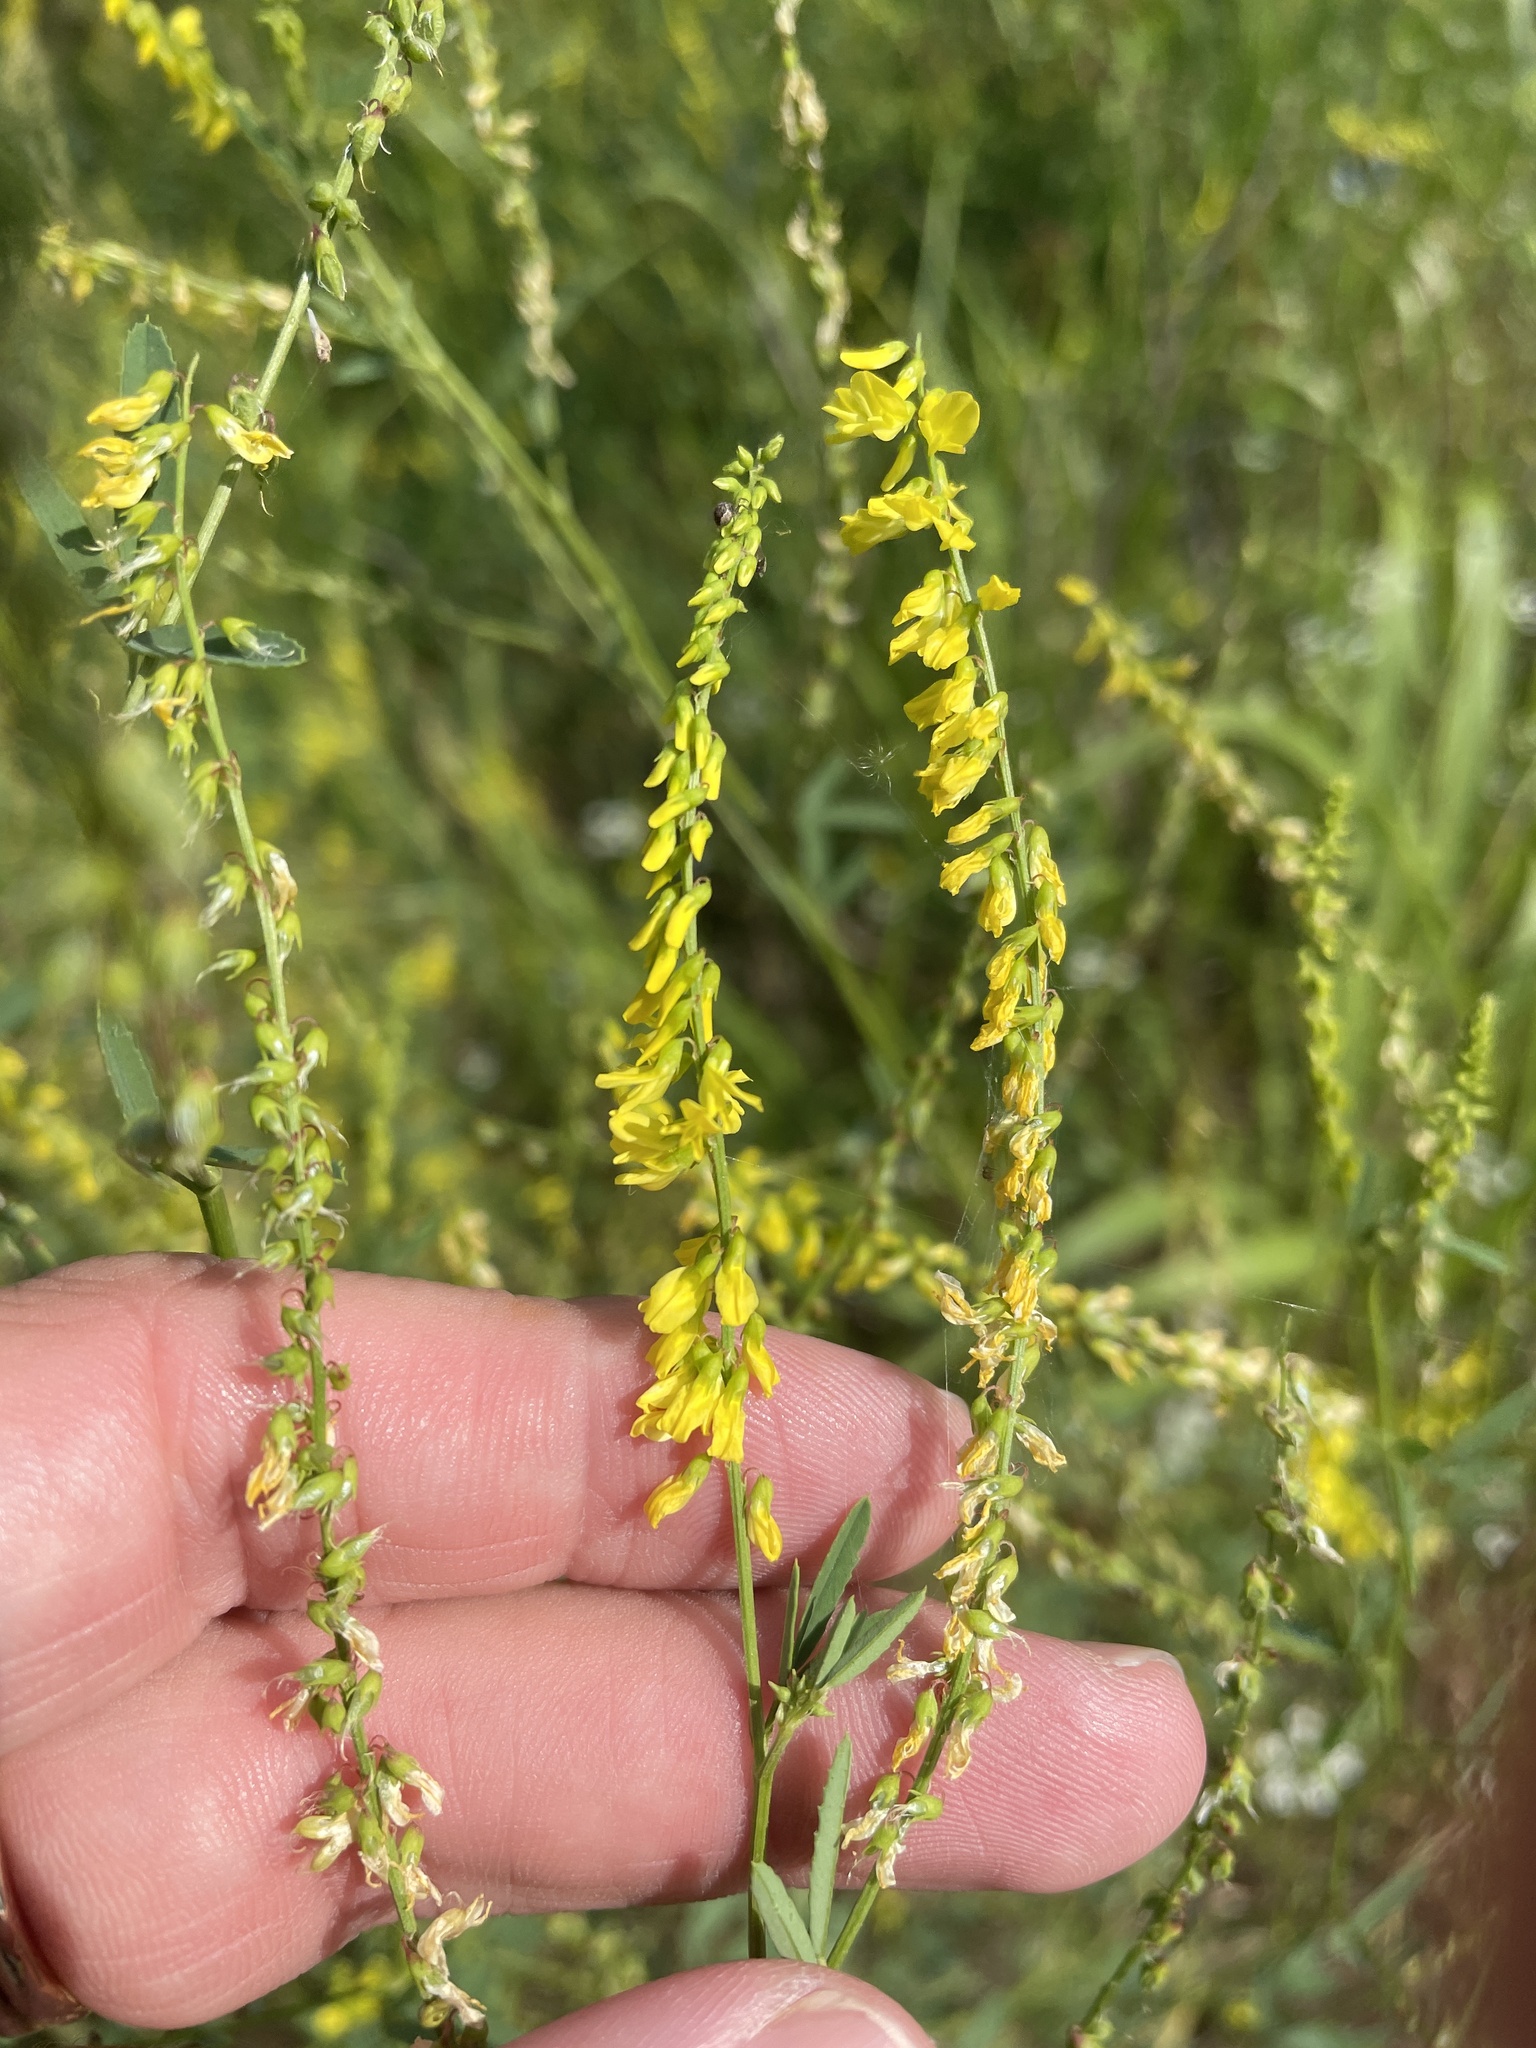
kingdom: Plantae
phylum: Tracheophyta
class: Magnoliopsida
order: Fabales
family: Fabaceae
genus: Melilotus
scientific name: Melilotus officinalis
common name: Sweetclover
